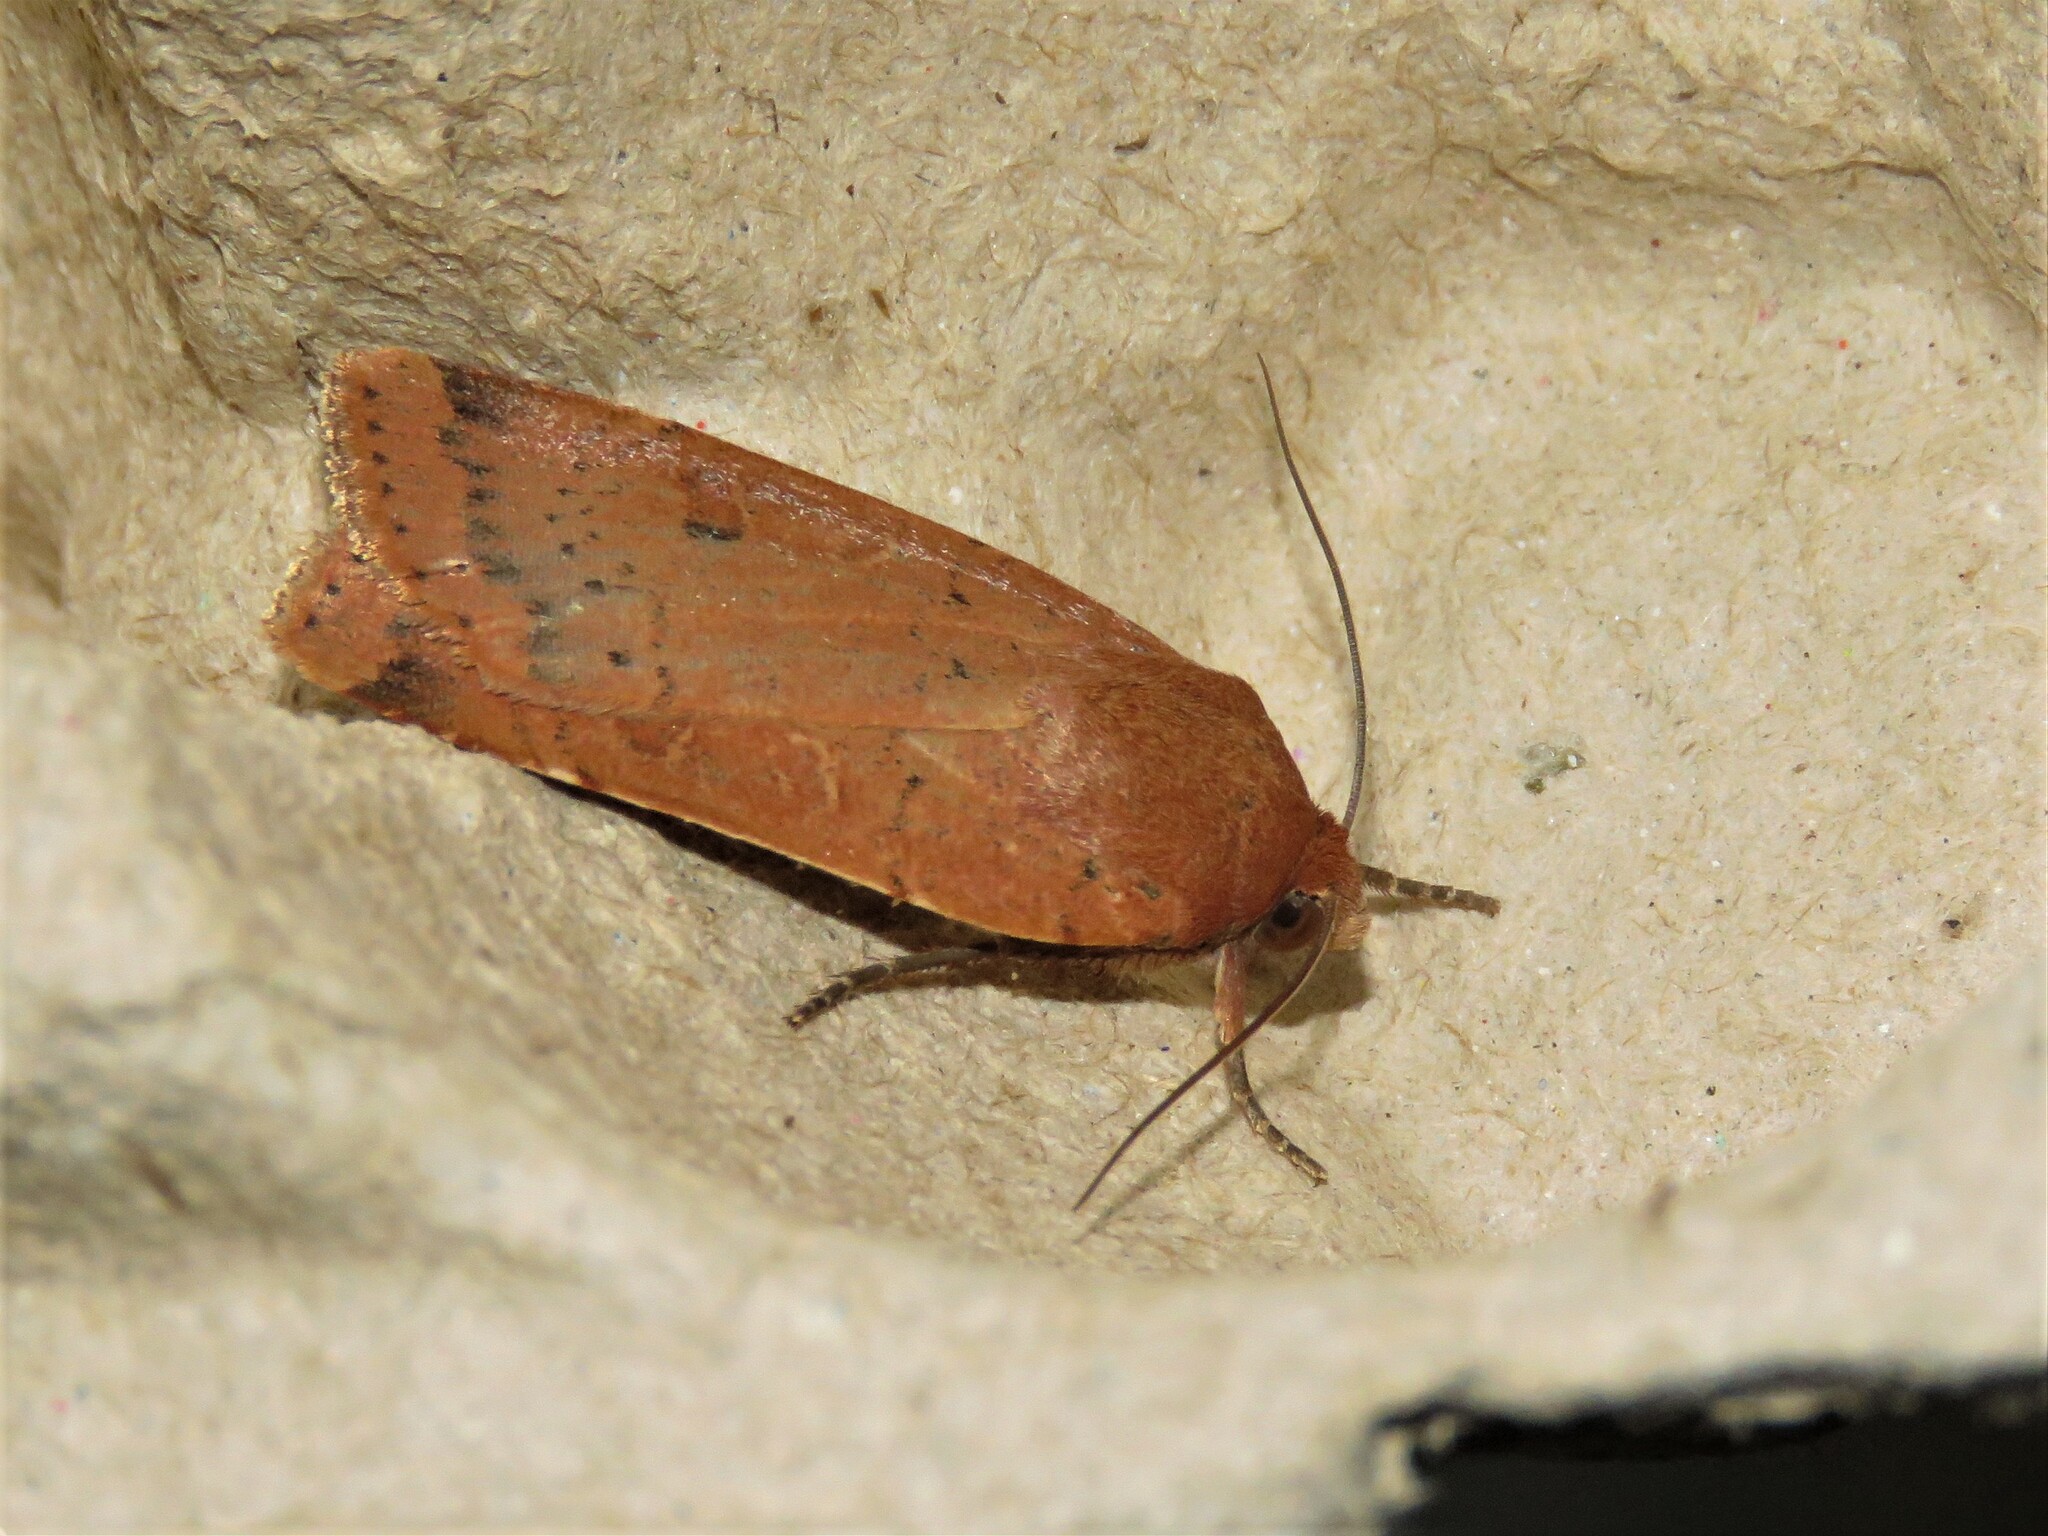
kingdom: Animalia
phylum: Arthropoda
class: Insecta
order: Lepidoptera
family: Noctuidae
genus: Noctua
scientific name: Noctua comes
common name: Lesser yellow underwing
